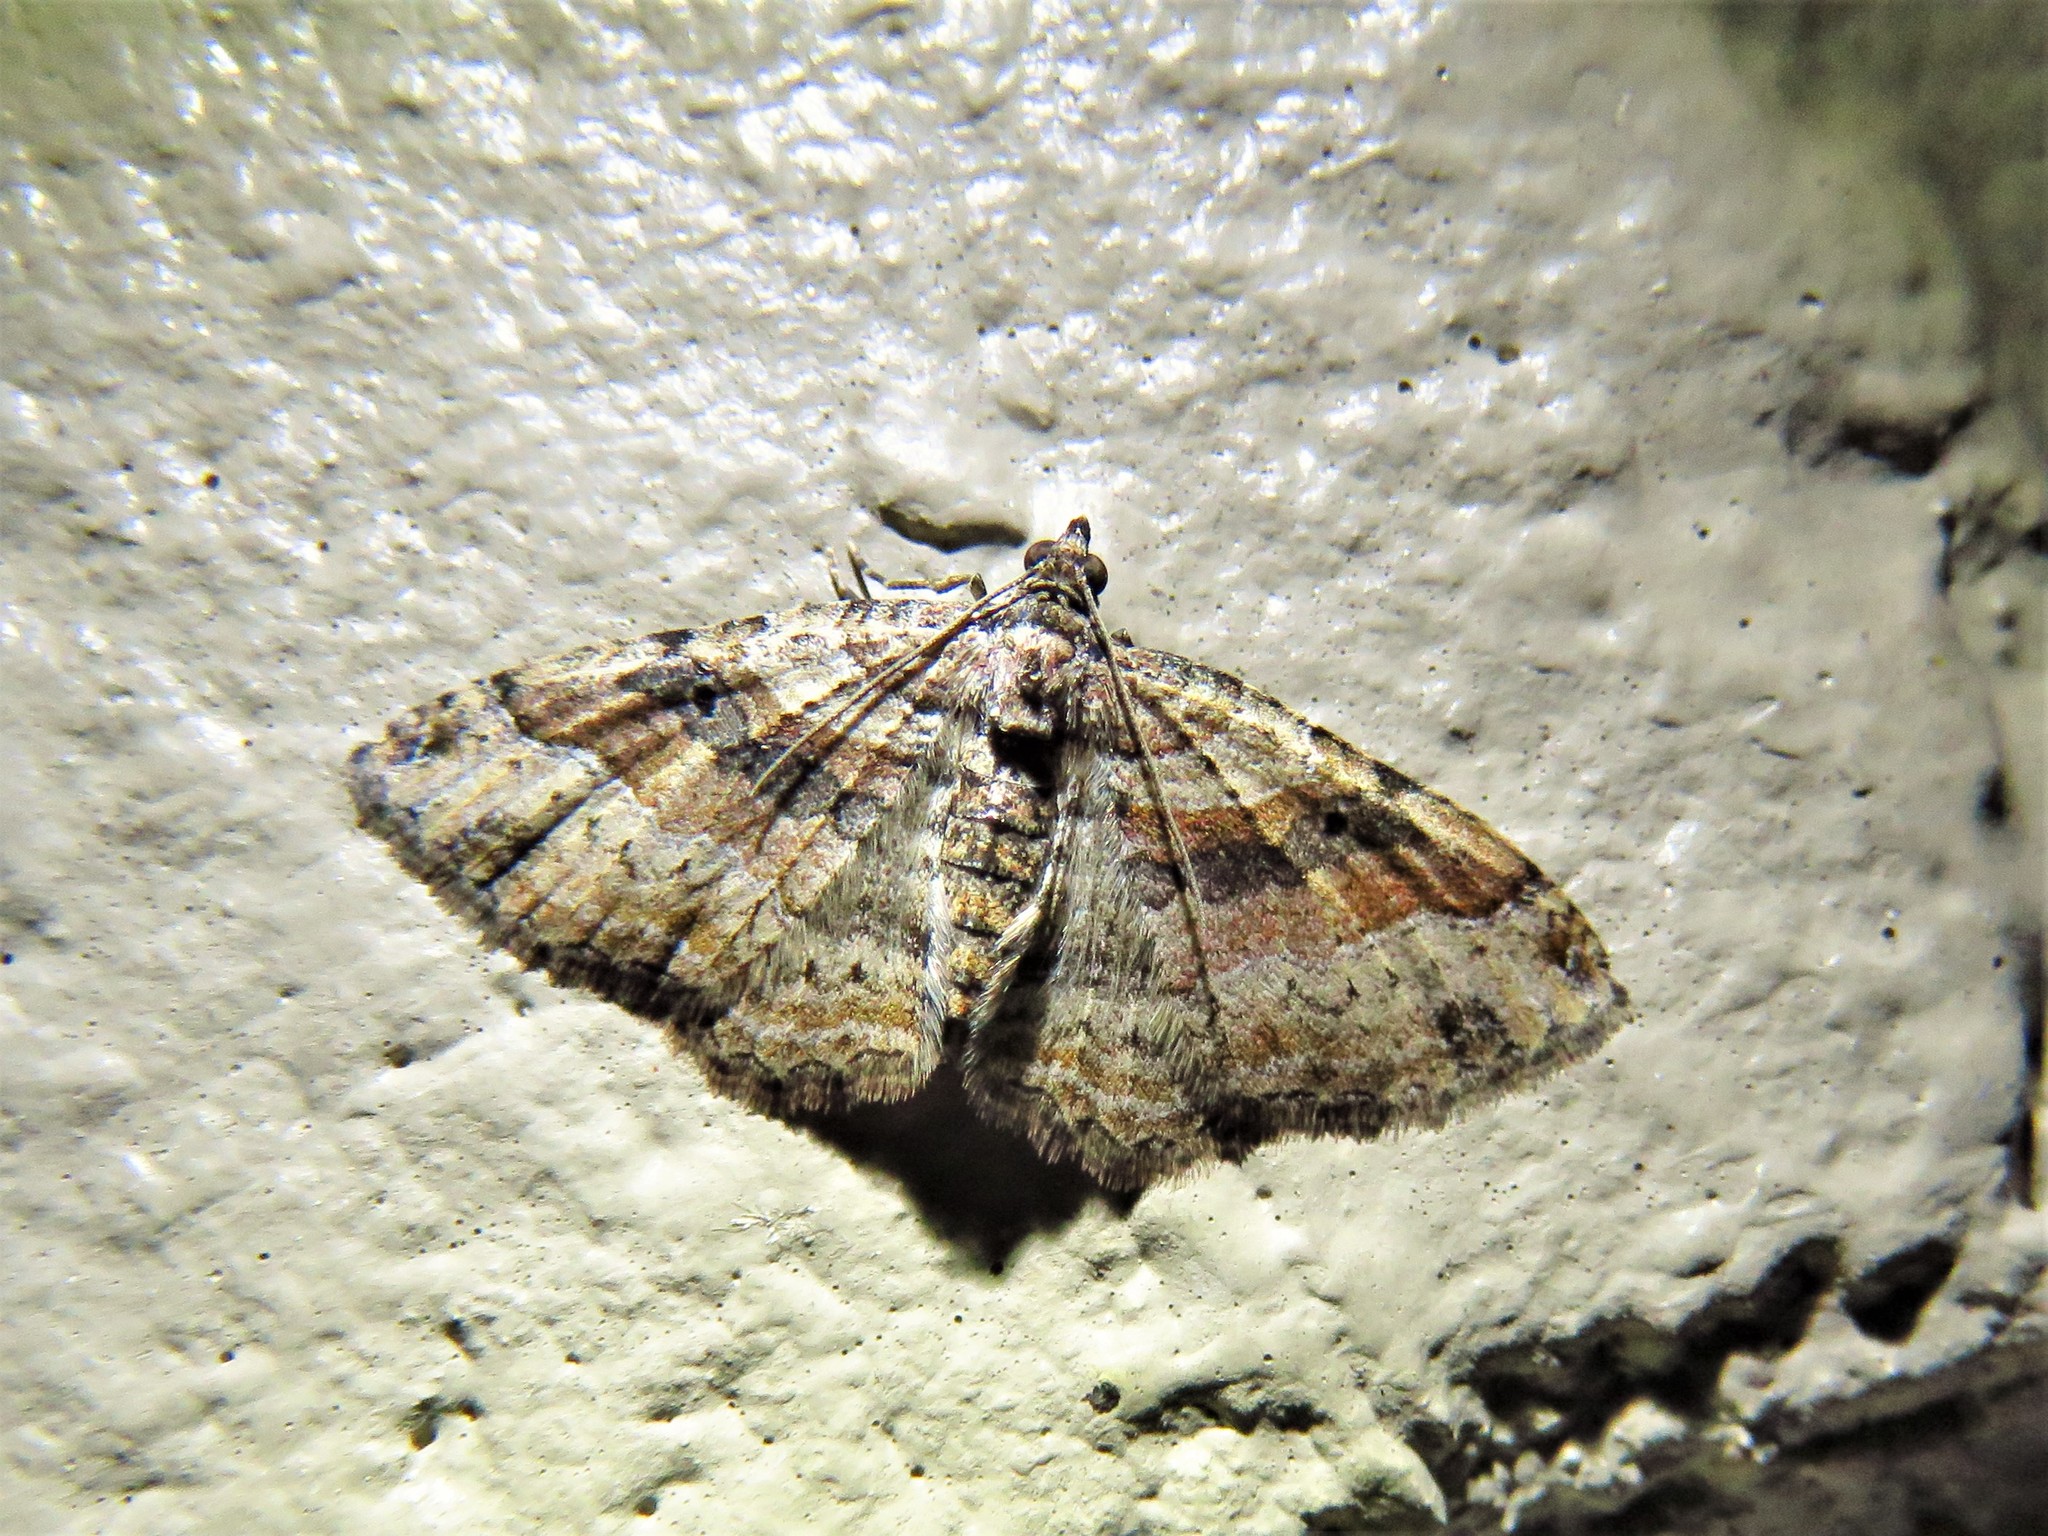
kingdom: Animalia
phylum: Arthropoda
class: Insecta
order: Lepidoptera
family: Geometridae
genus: Costaconvexa
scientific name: Costaconvexa centrostrigaria
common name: Bent-line carpet
